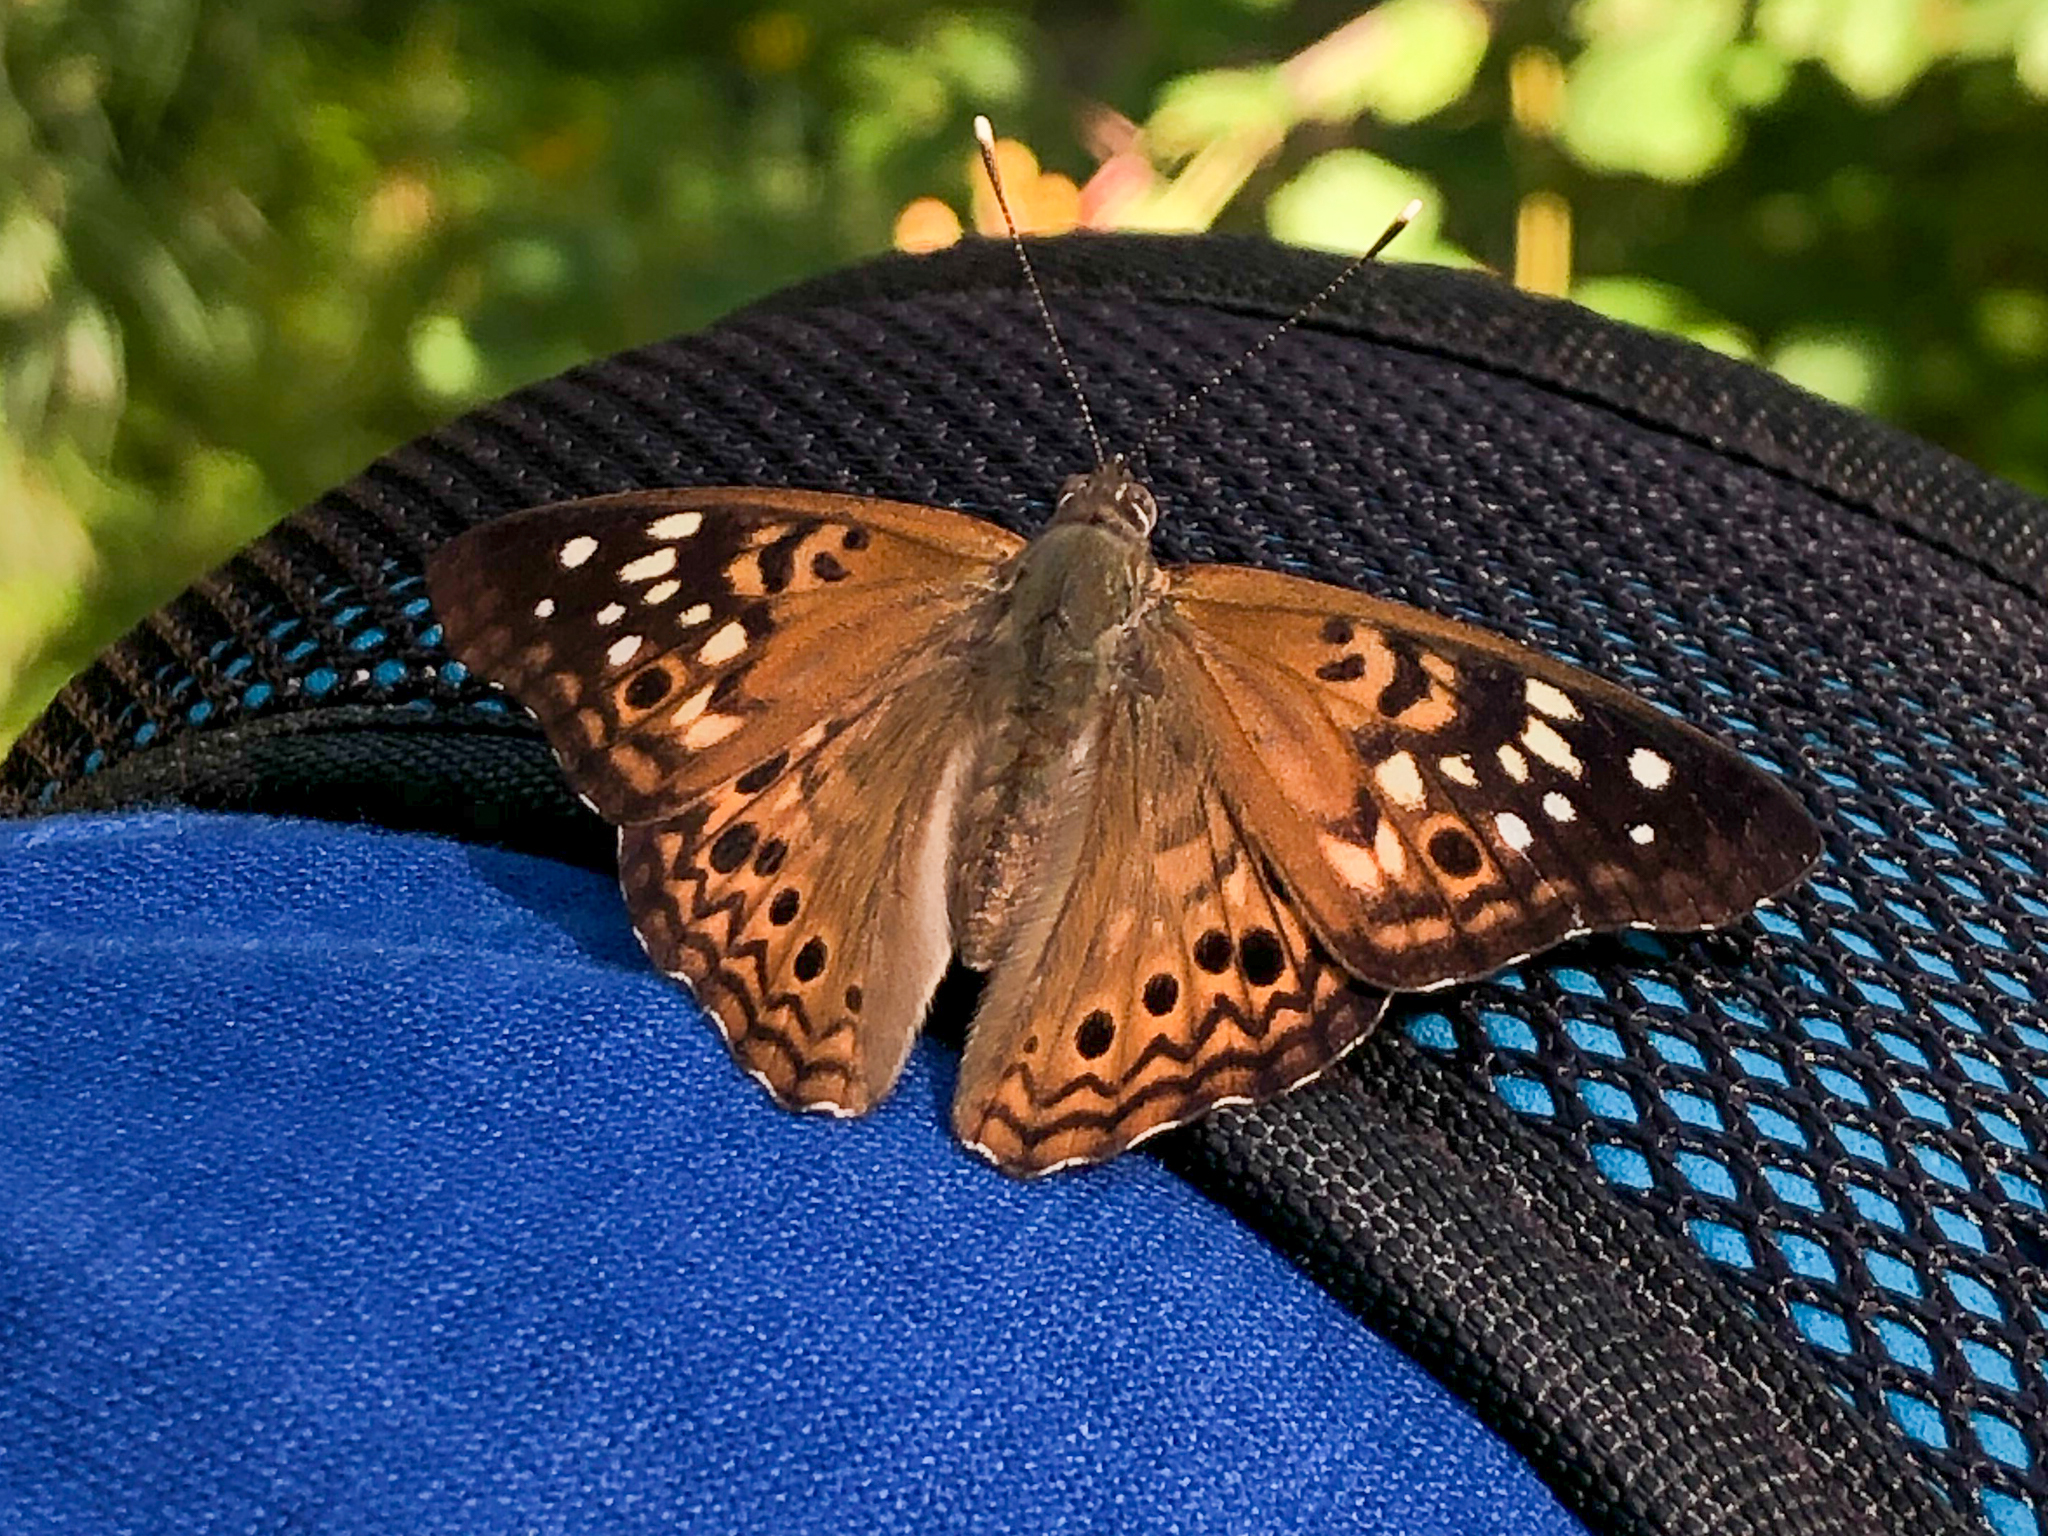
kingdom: Animalia
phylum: Arthropoda
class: Insecta
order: Lepidoptera
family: Nymphalidae
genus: Asterocampa
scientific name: Asterocampa celtis
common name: Hackberry emperor
